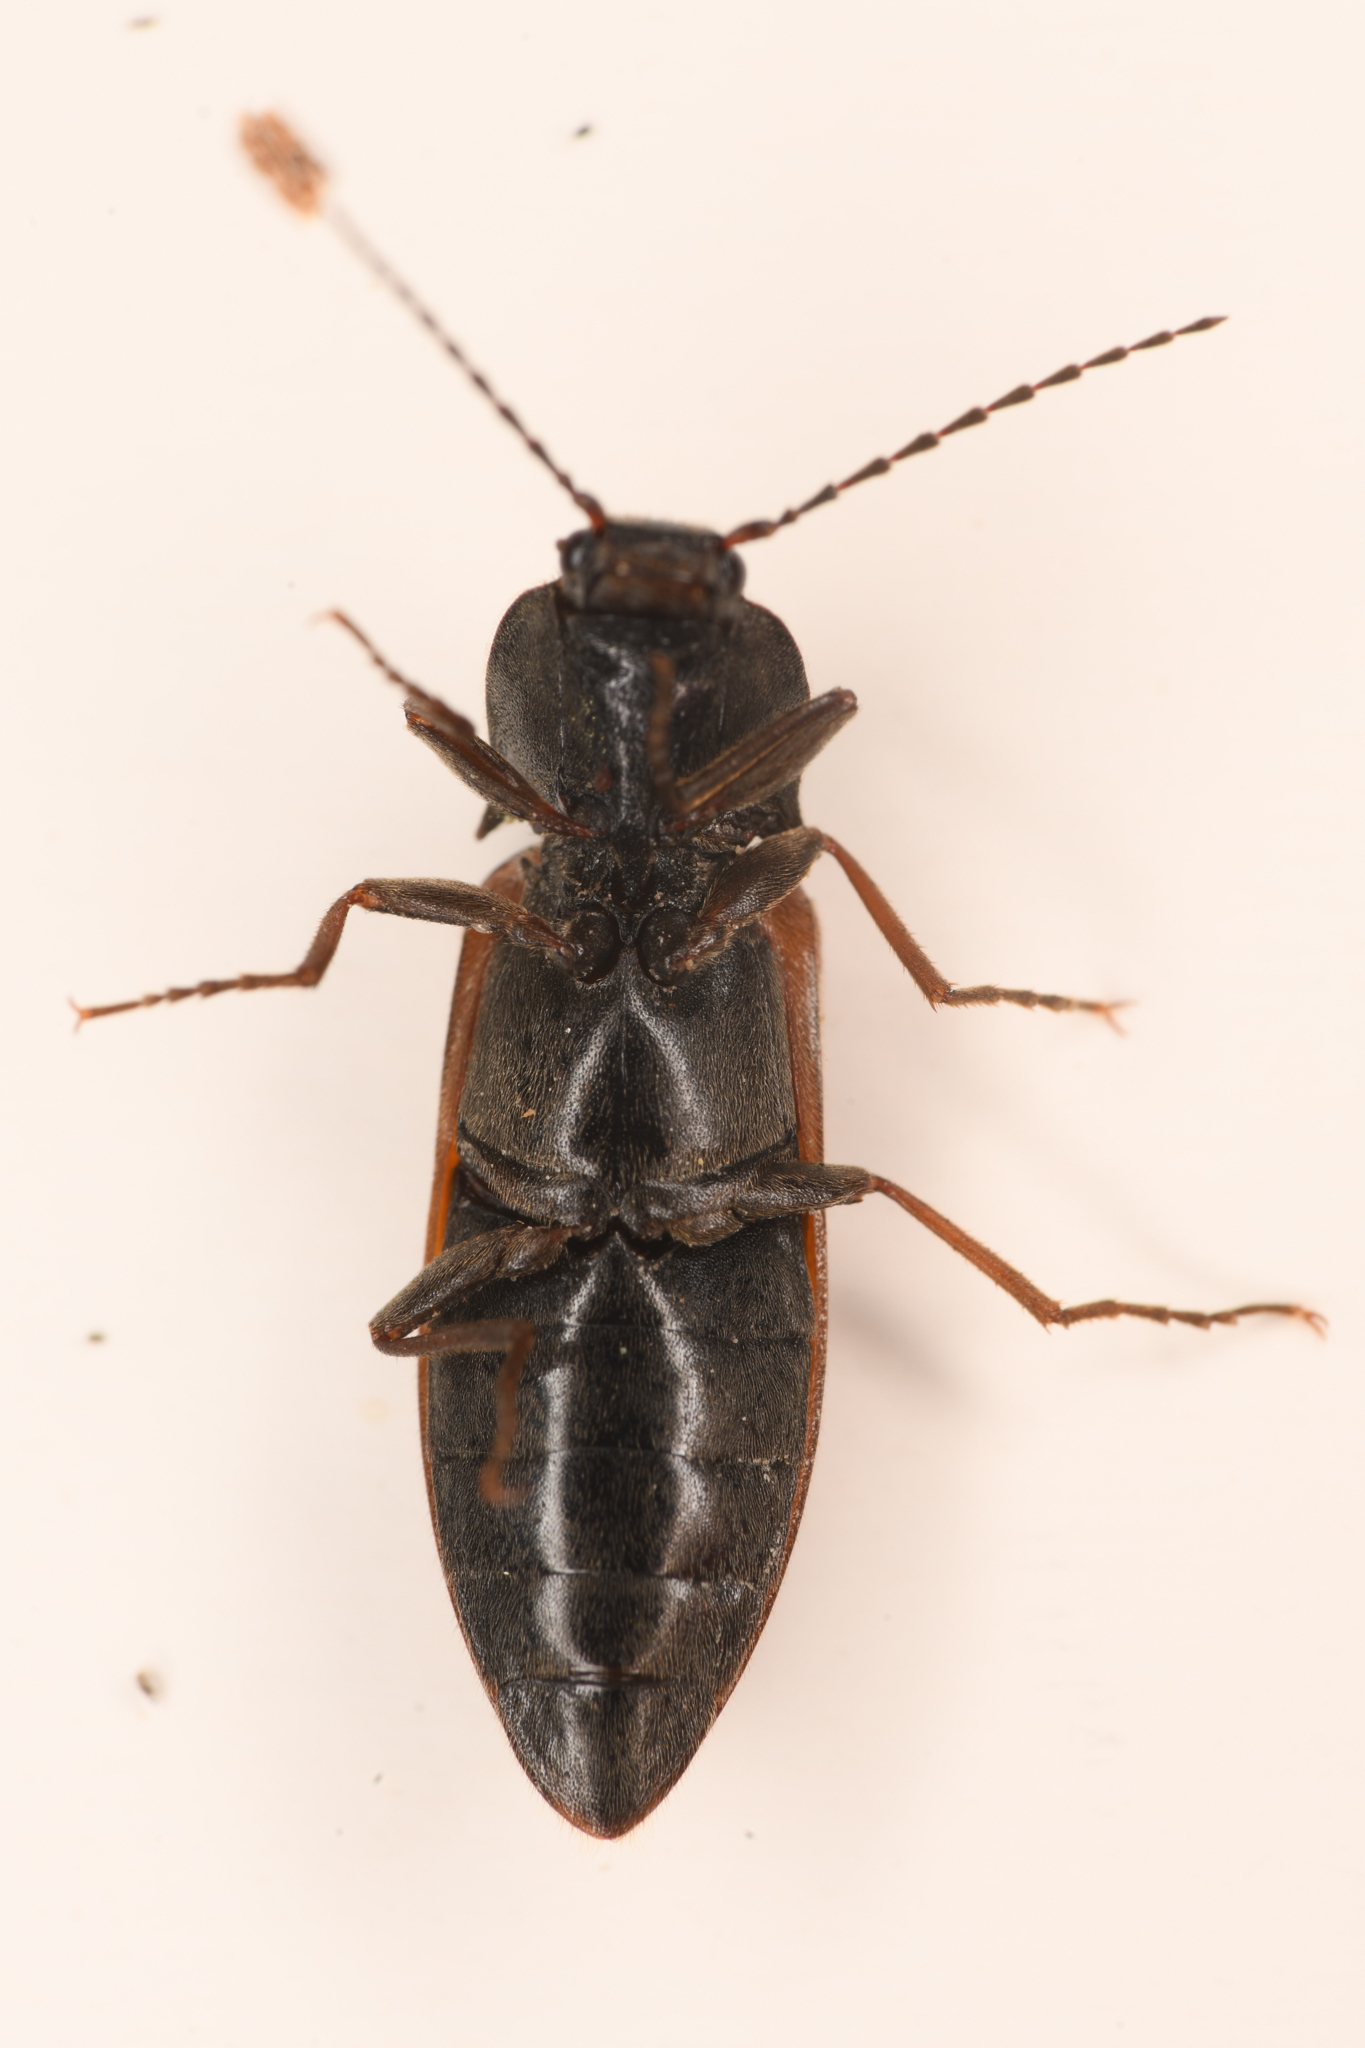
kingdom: Animalia
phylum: Arthropoda
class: Insecta
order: Coleoptera
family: Elateridae
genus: Acteniceromorphus
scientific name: Acteniceromorphus
